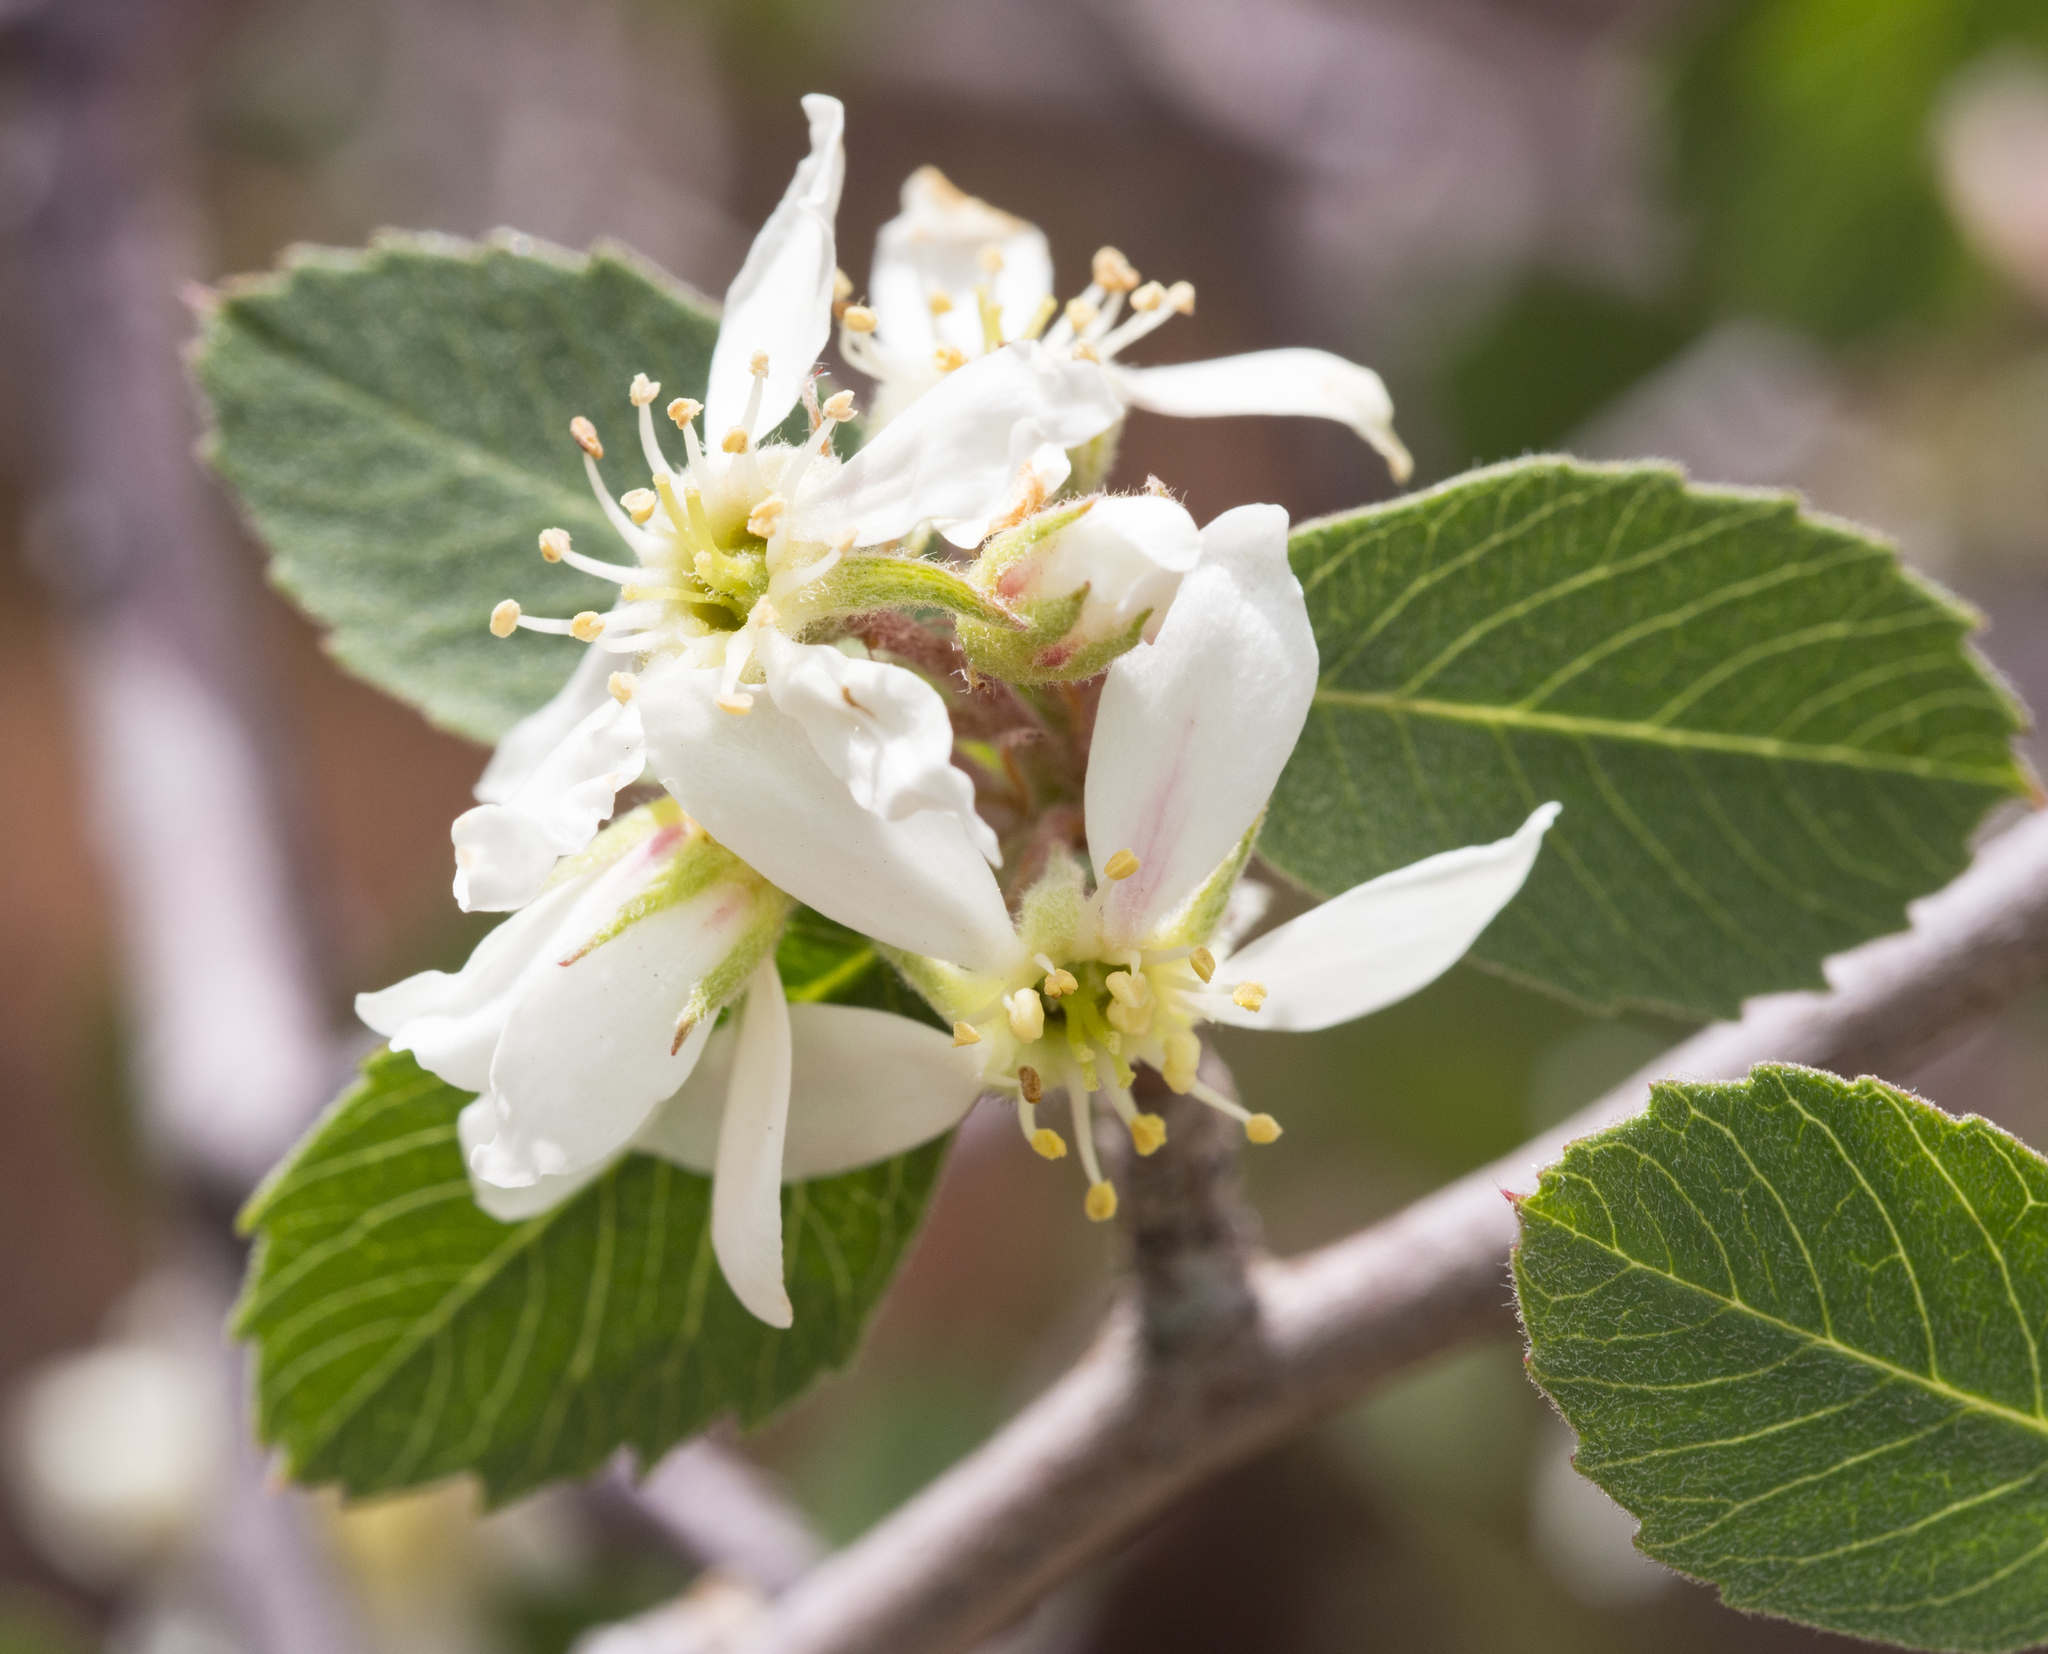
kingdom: Plantae
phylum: Tracheophyta
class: Magnoliopsida
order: Rosales
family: Rosaceae
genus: Amelanchier
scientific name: Amelanchier utahensis
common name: Utah serviceberry
